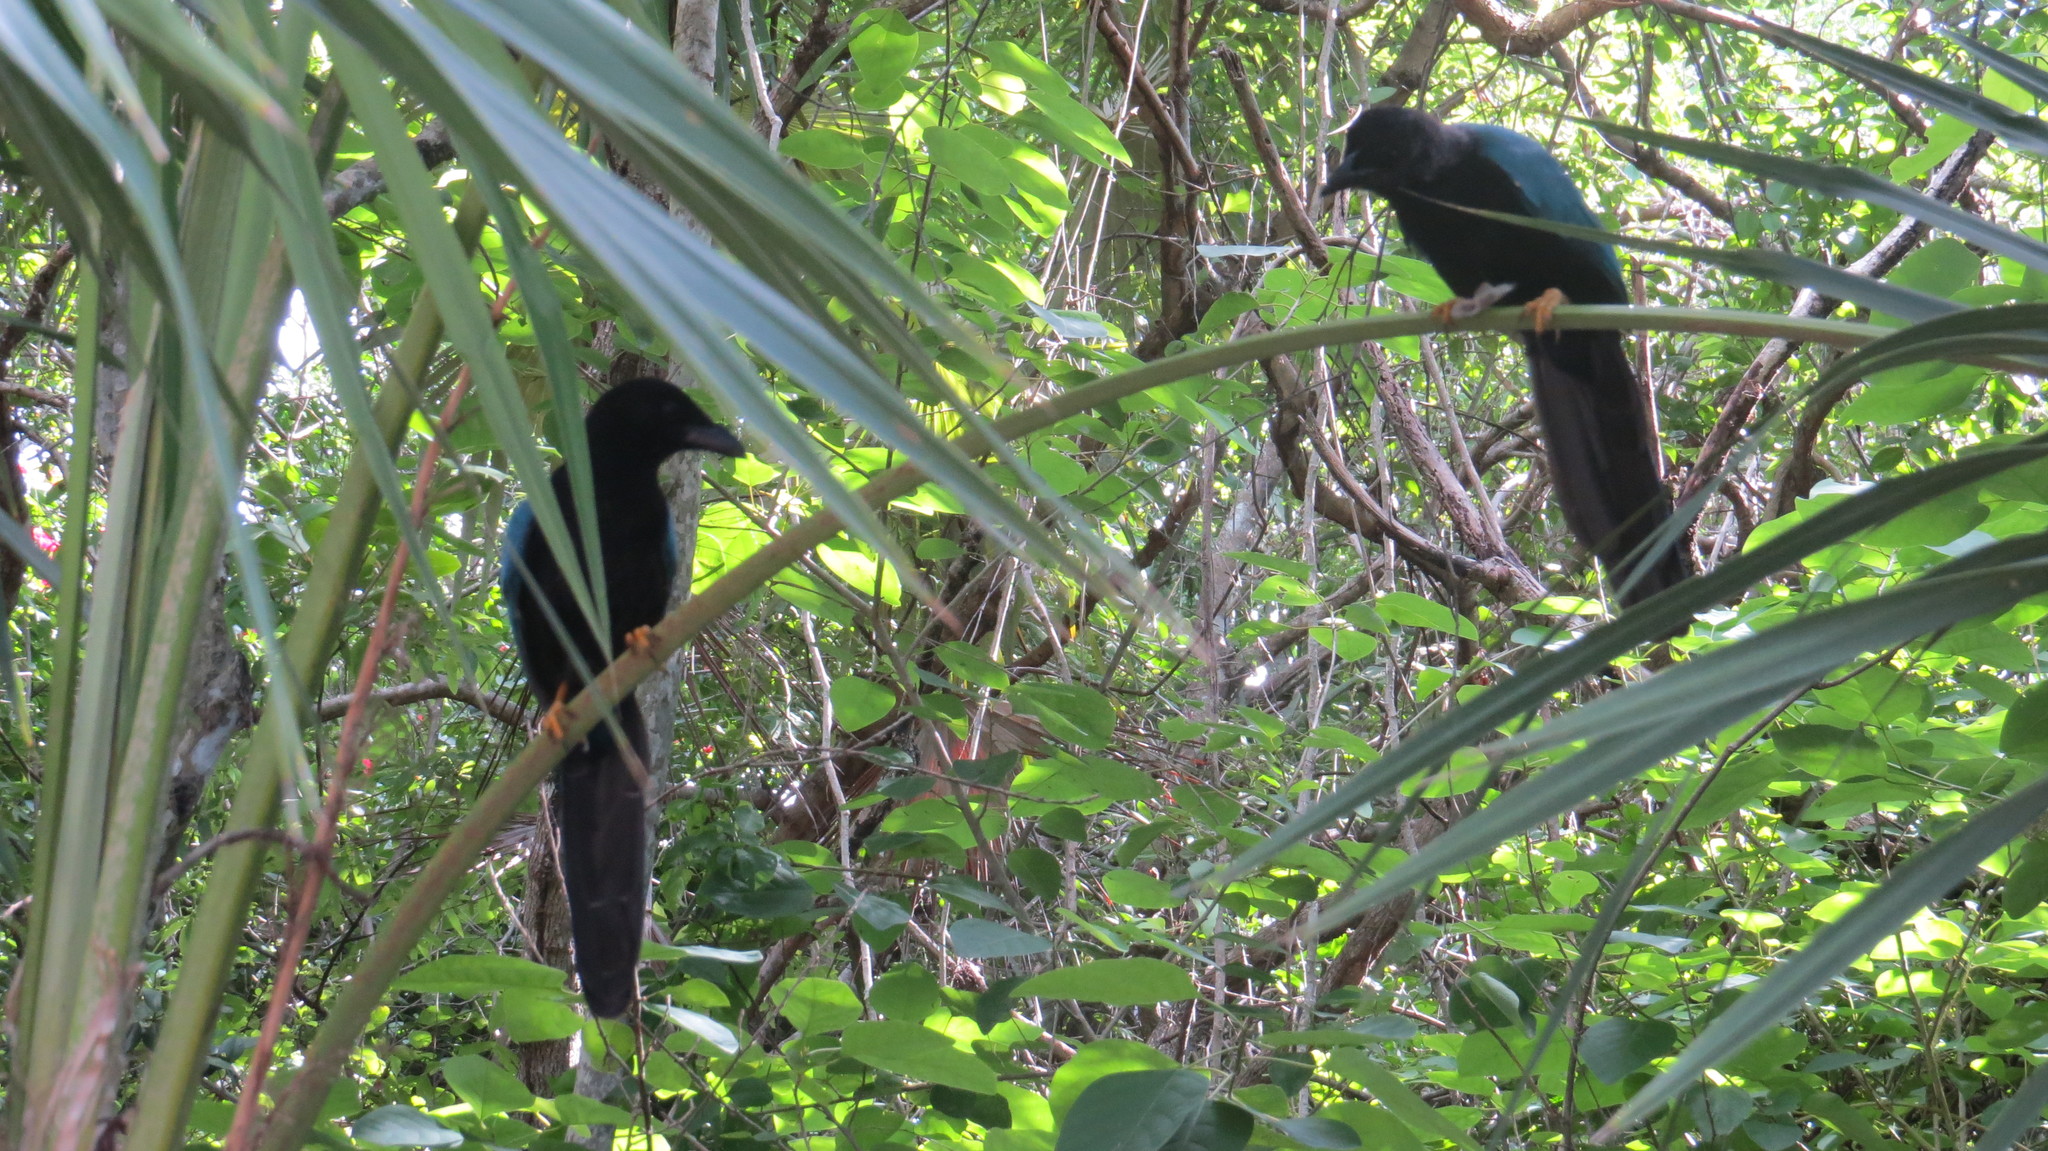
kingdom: Animalia
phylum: Chordata
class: Aves
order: Passeriformes
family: Corvidae
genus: Cyanocorax
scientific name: Cyanocorax yucatanicus
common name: Yucatan jay
